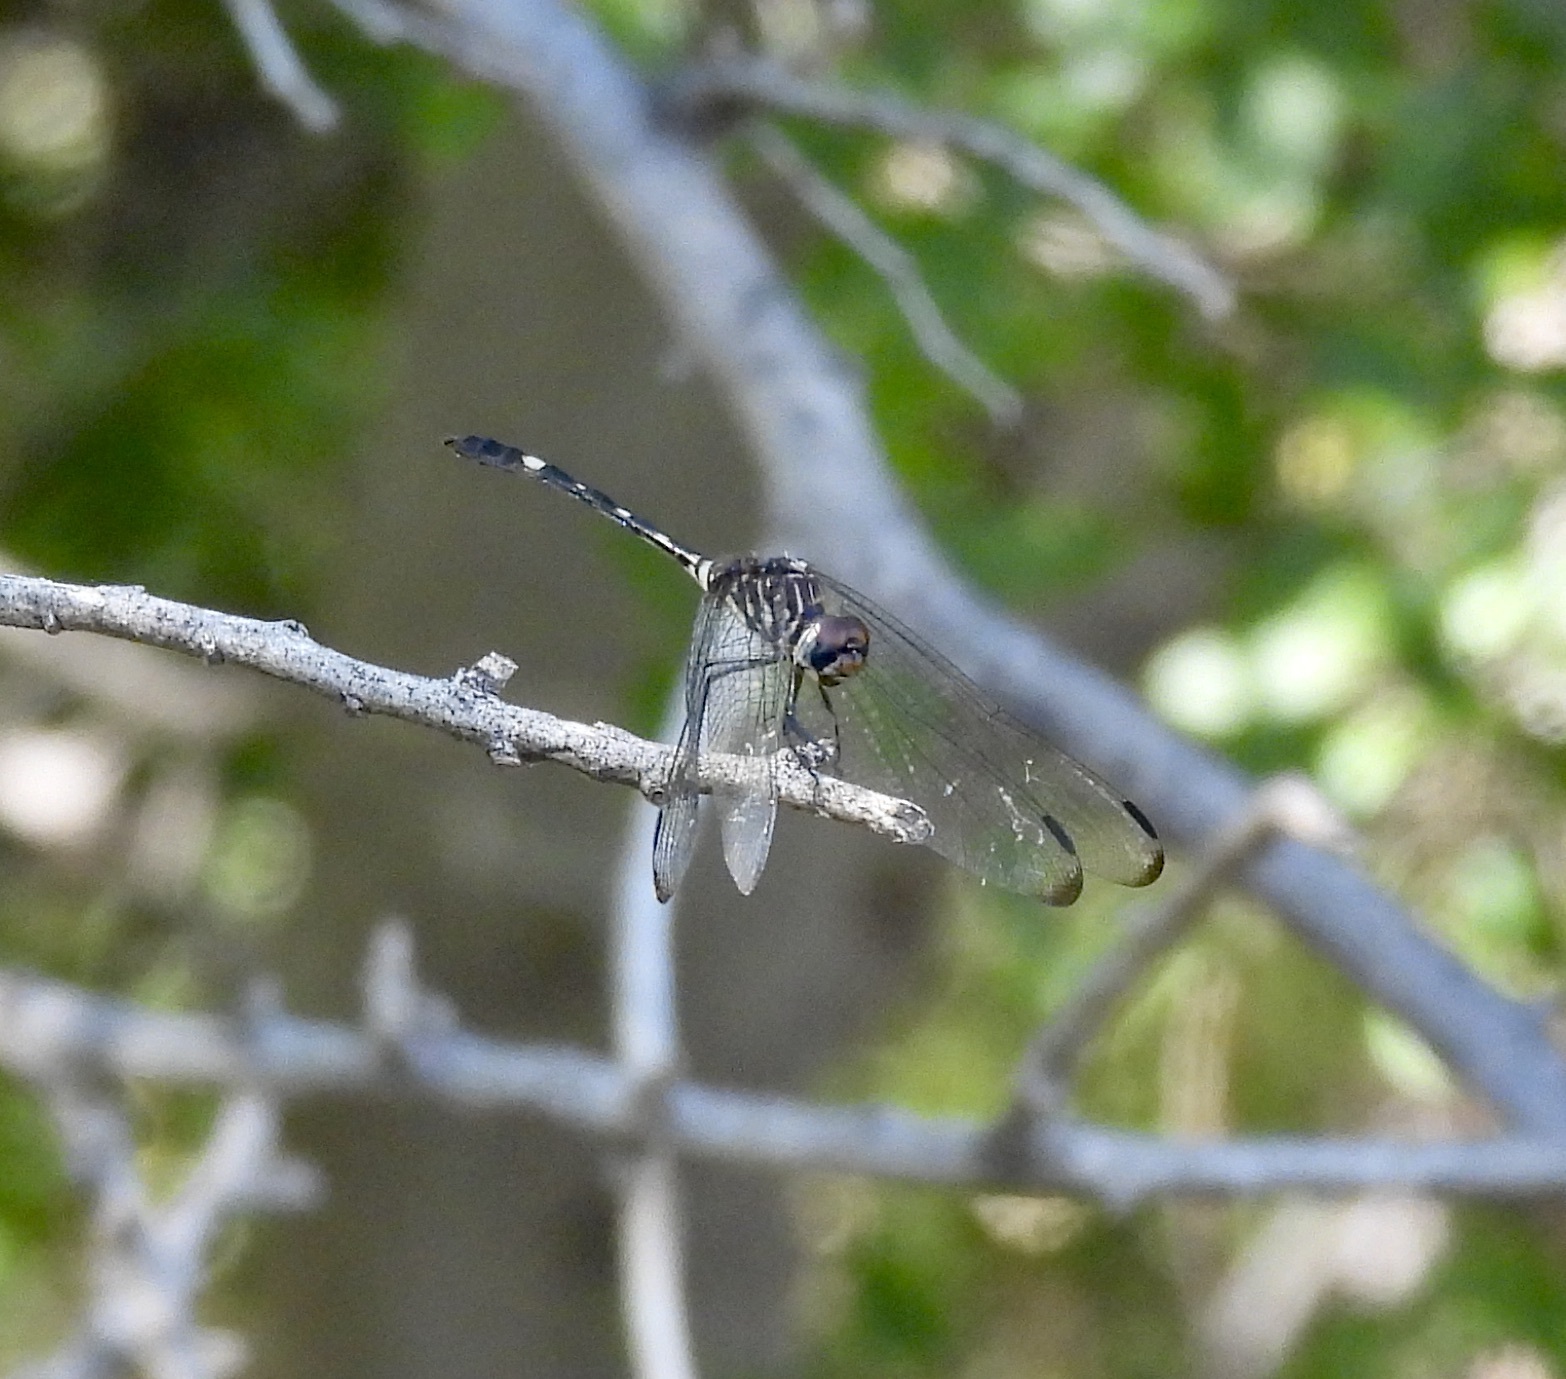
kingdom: Animalia
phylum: Arthropoda
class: Insecta
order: Odonata
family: Libellulidae
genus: Dythemis
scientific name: Dythemis velox
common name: Swift setwing
